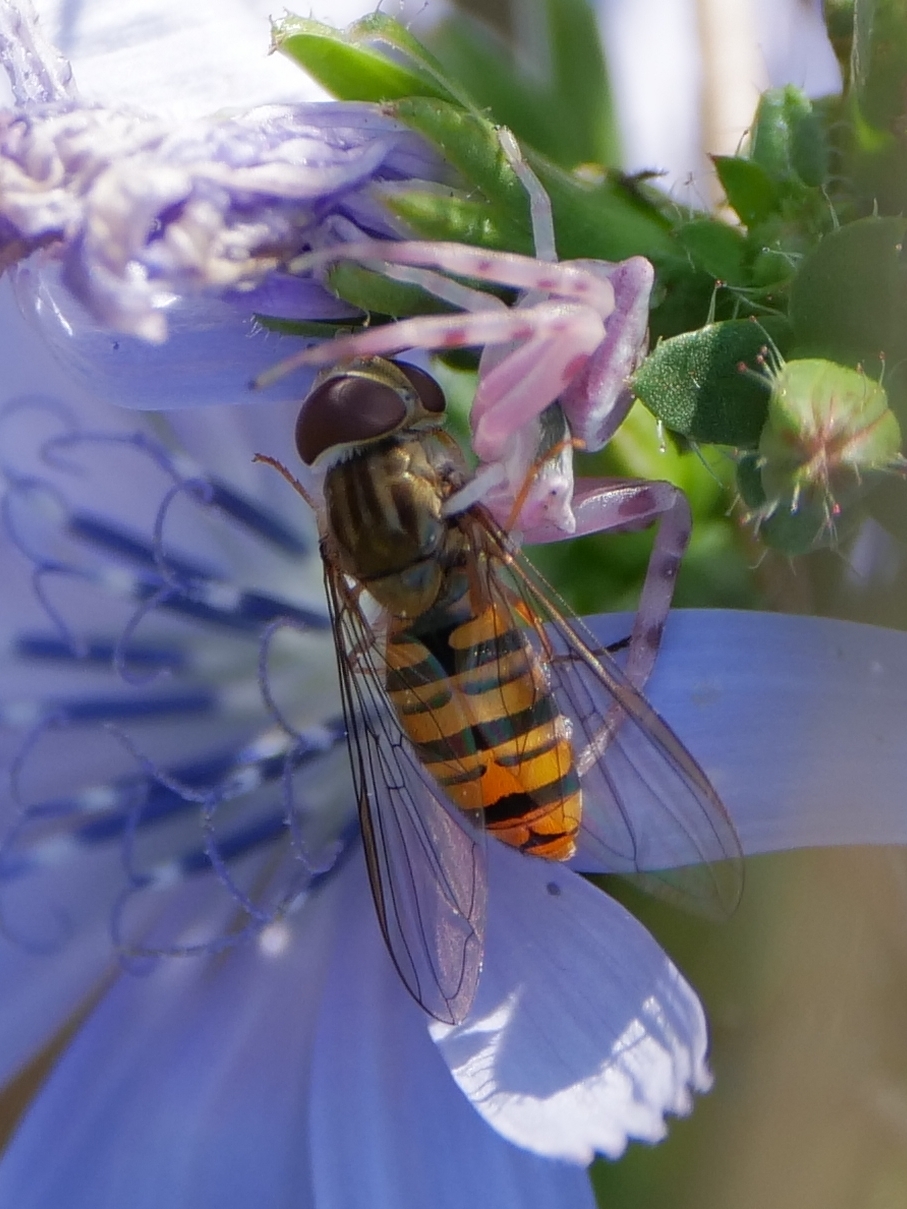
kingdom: Animalia
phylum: Arthropoda
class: Insecta
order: Diptera
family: Syrphidae
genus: Episyrphus
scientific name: Episyrphus balteatus
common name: Marmalade hoverfly
